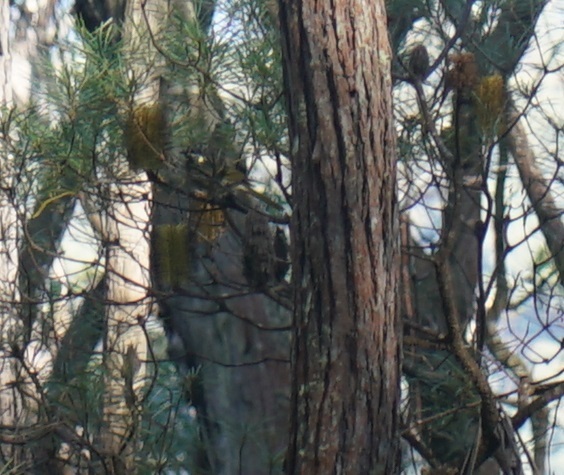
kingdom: Animalia
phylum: Chordata
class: Aves
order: Passeriformes
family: Meliphagidae
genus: Meliphaga
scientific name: Meliphaga lewinii
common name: Lewin's honeyeater
